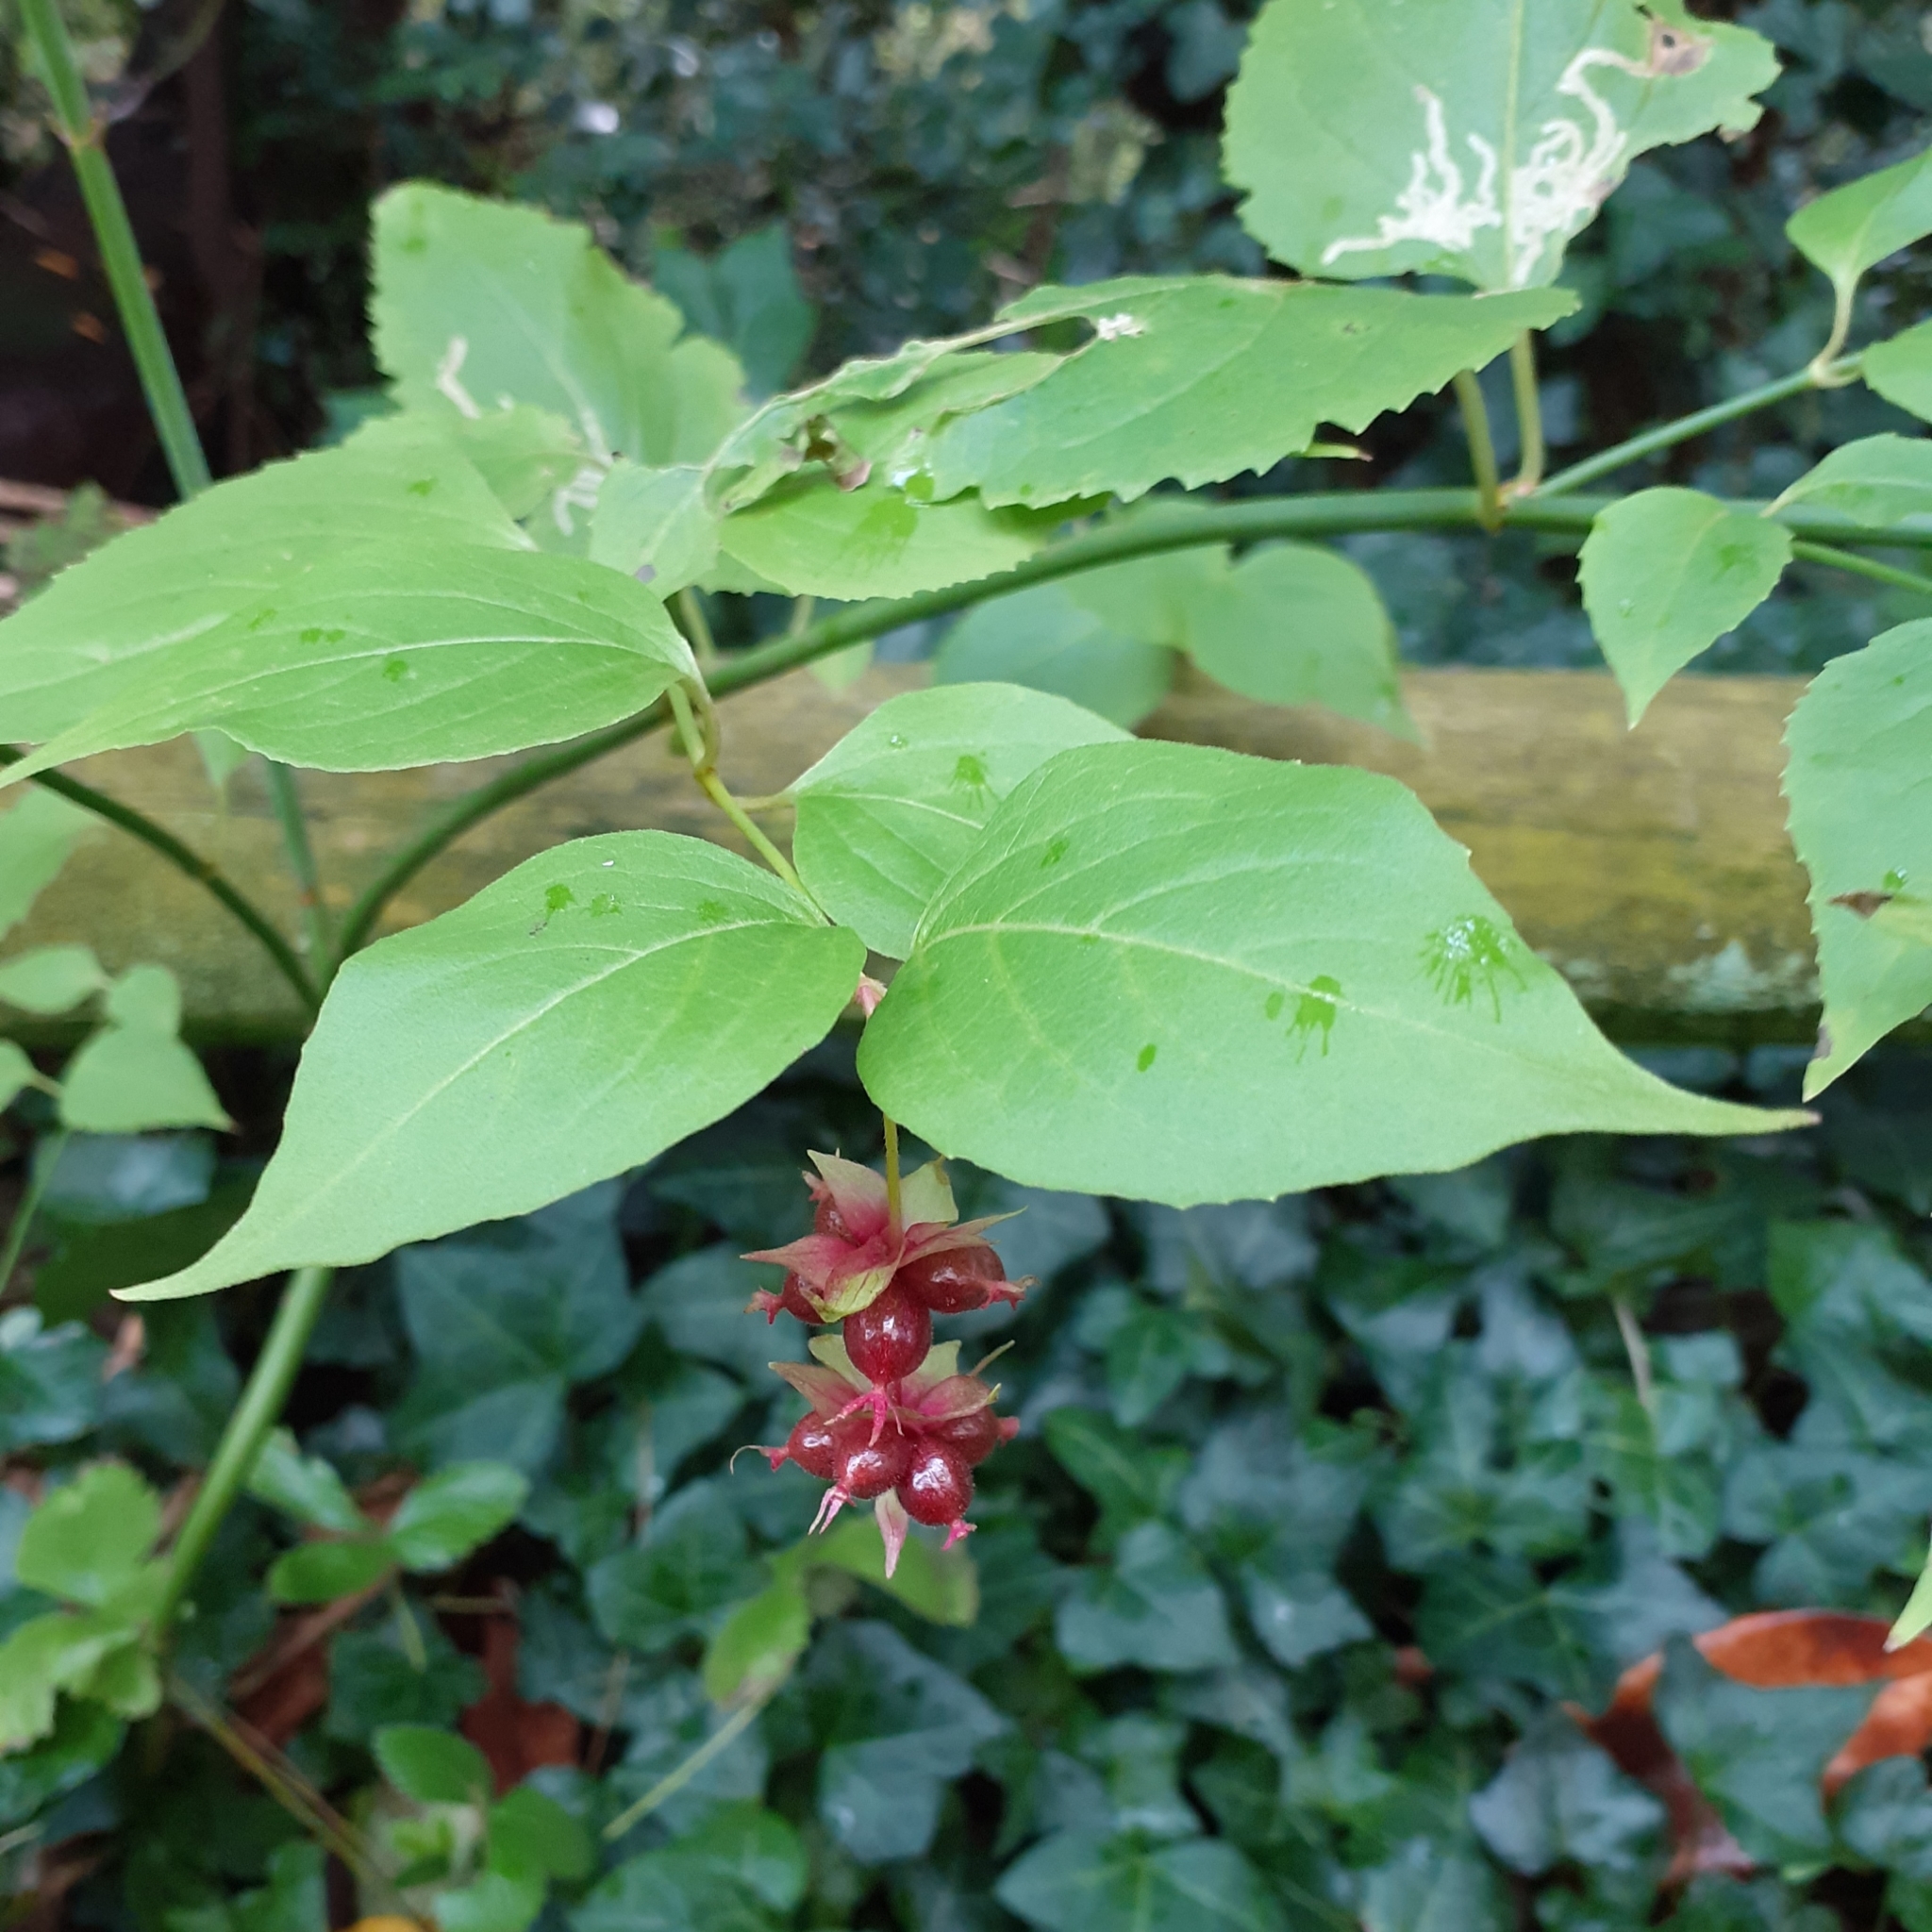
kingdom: Plantae
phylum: Tracheophyta
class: Magnoliopsida
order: Dipsacales
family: Caprifoliaceae
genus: Leycesteria
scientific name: Leycesteria formosa
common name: Himalayan honeysuckle
